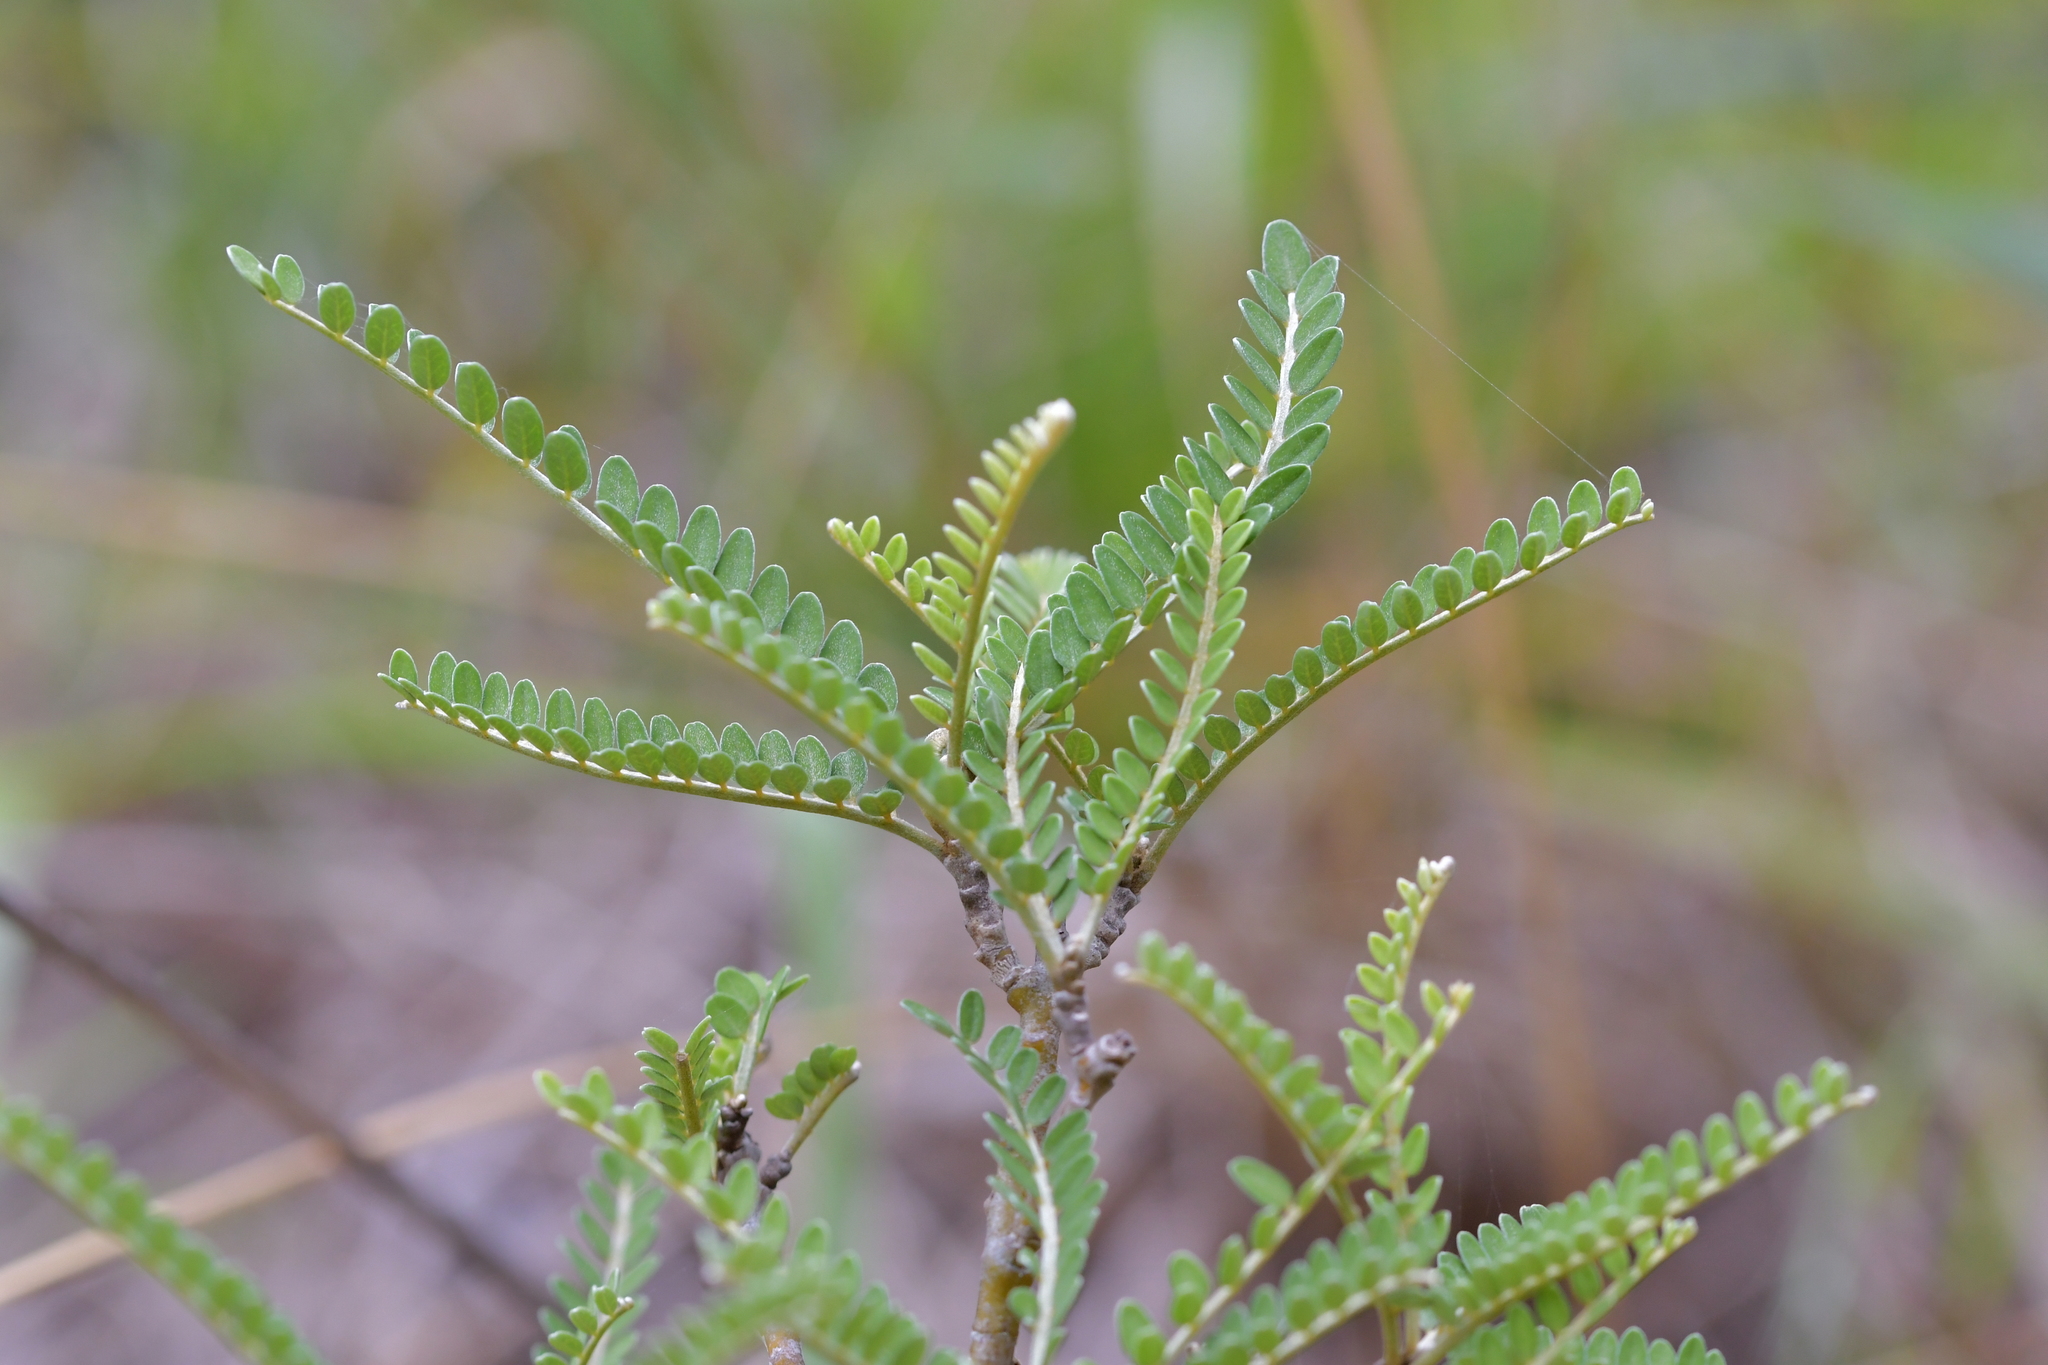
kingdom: Plantae
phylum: Tracheophyta
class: Magnoliopsida
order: Fabales
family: Fabaceae
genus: Sophora
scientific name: Sophora molloyi
